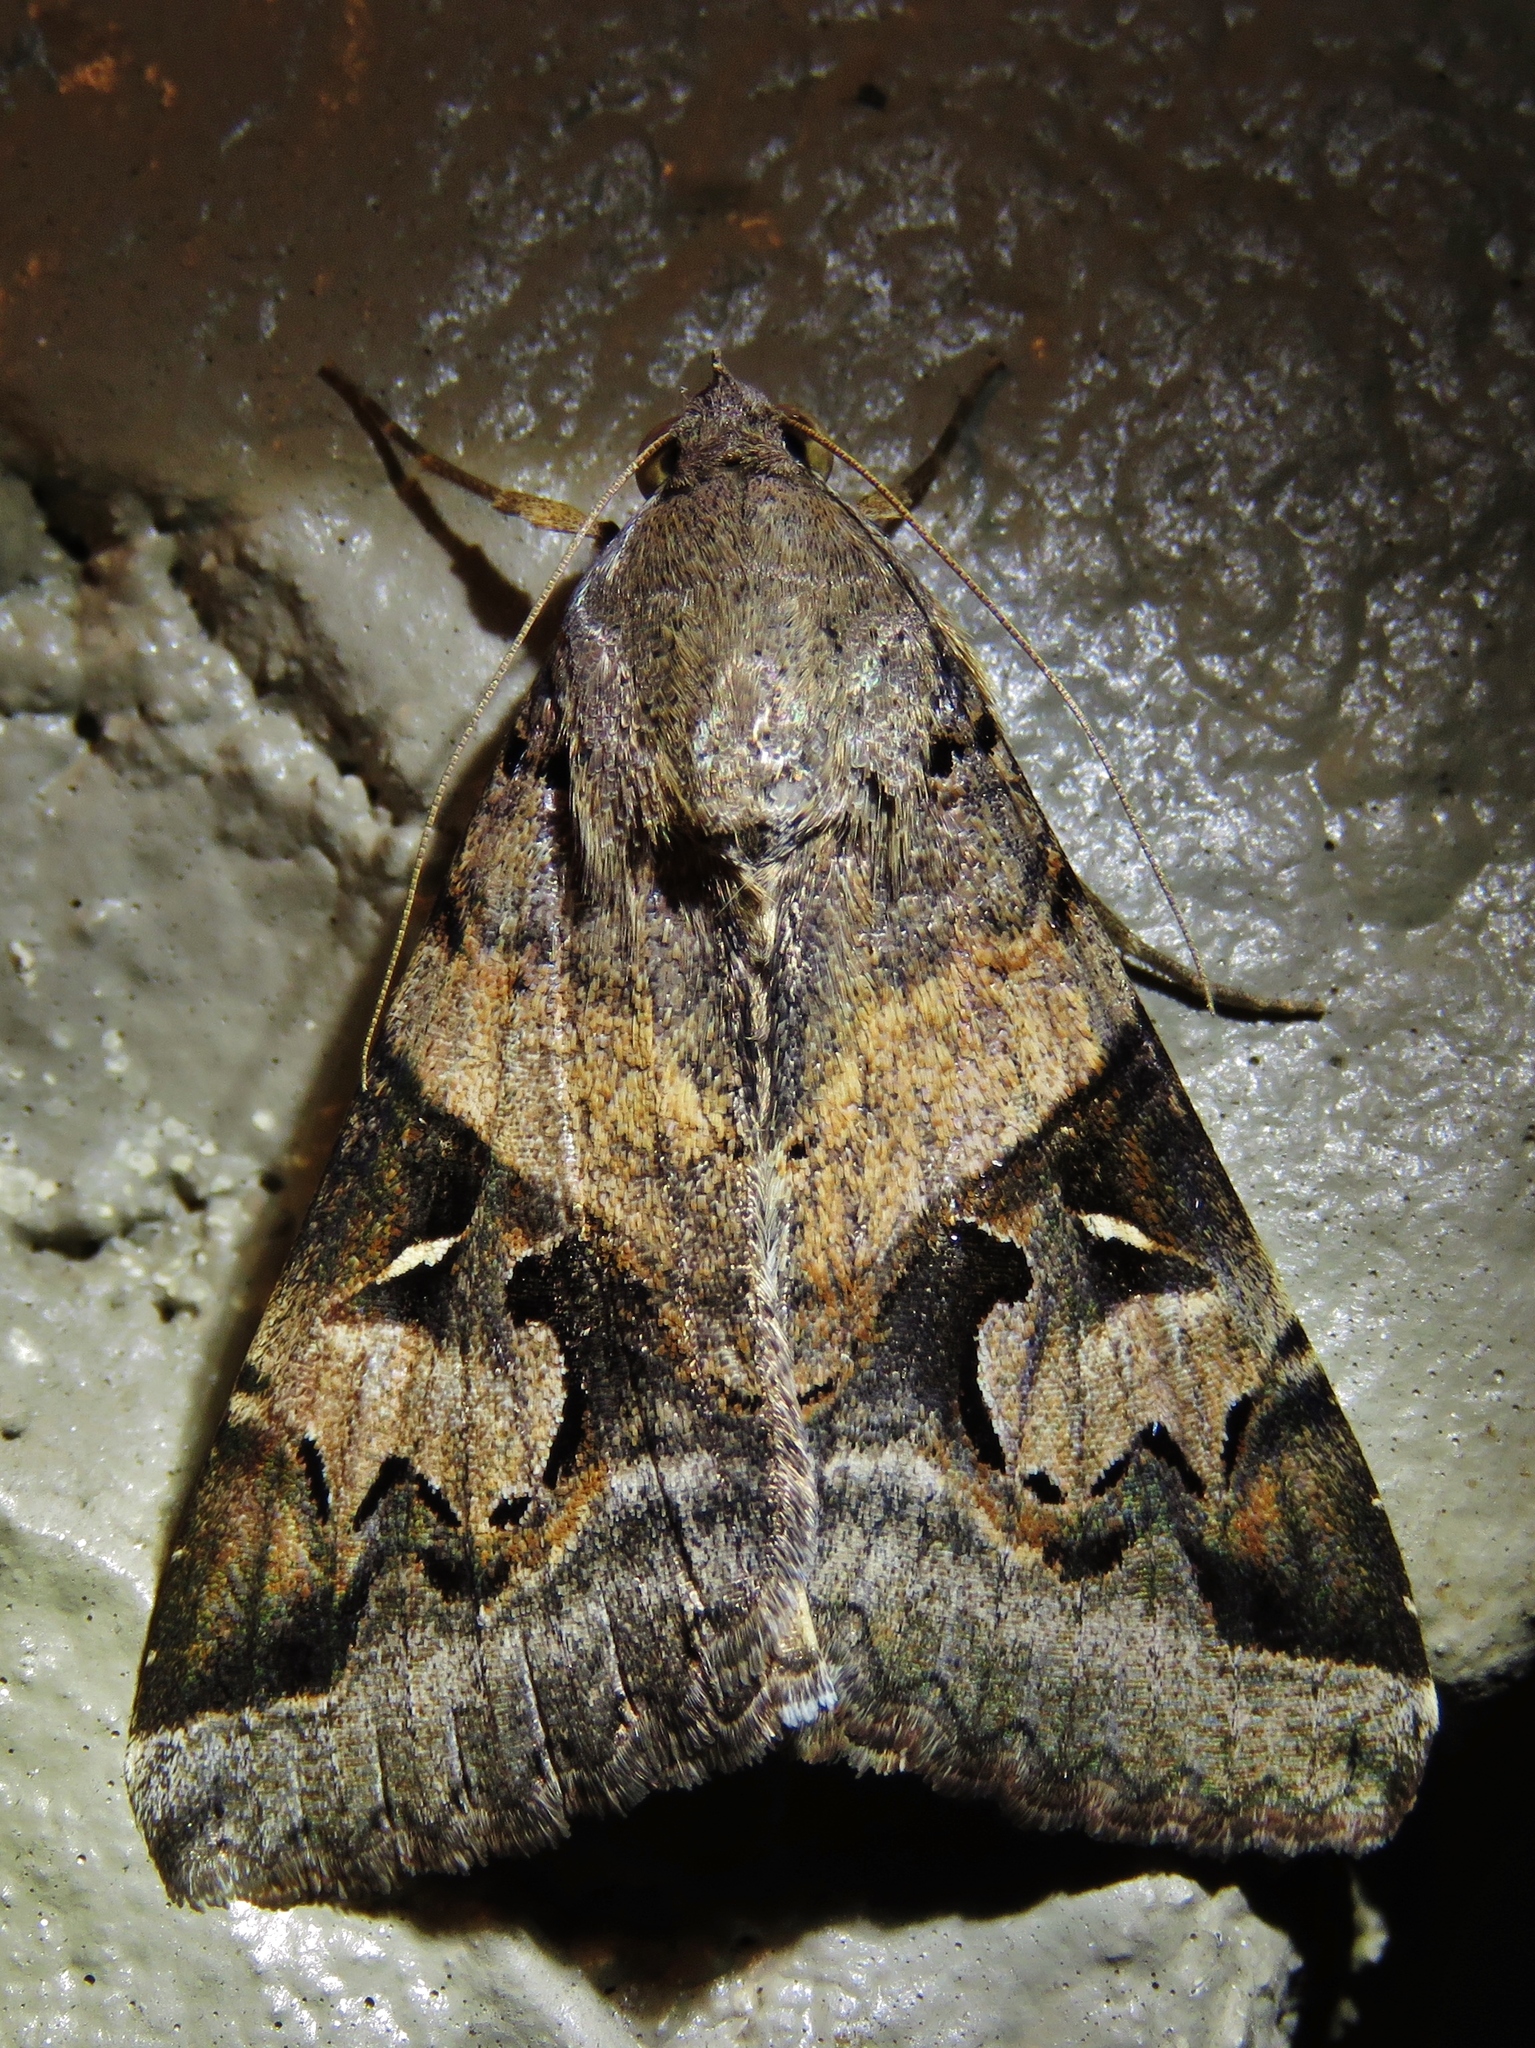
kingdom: Animalia
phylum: Arthropoda
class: Insecta
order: Lepidoptera
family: Erebidae
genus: Melipotis
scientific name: Melipotis indomita
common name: Moth
